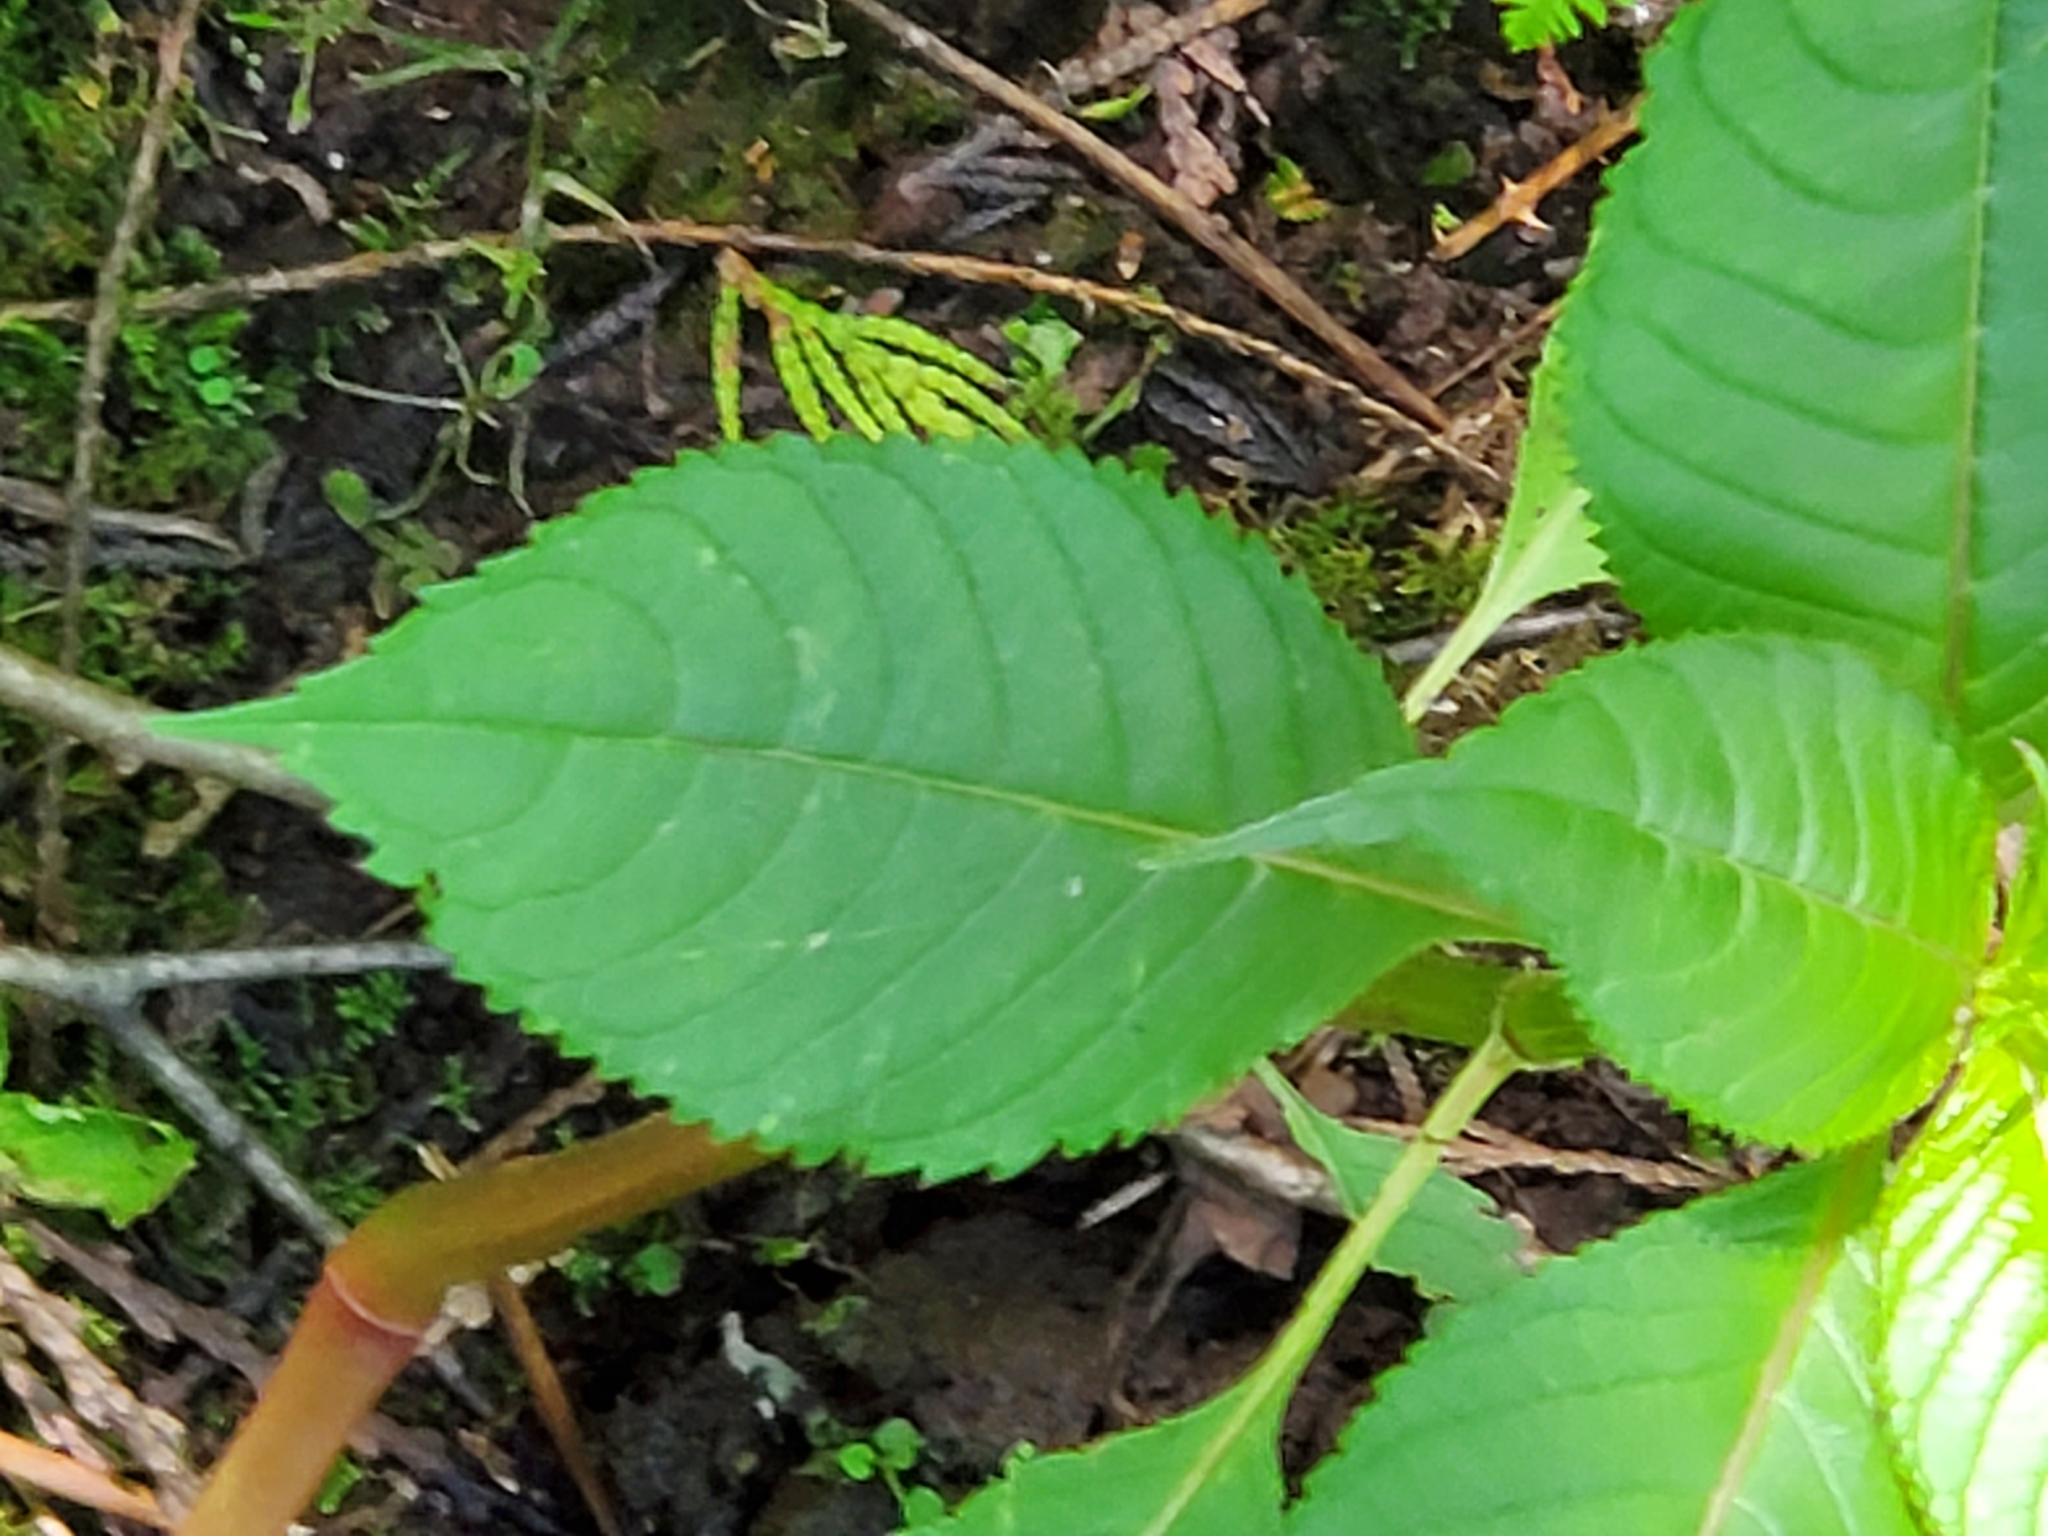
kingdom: Plantae
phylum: Tracheophyta
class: Magnoliopsida
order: Ericales
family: Balsaminaceae
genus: Impatiens
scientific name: Impatiens glandulifera
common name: Himalayan balsam
